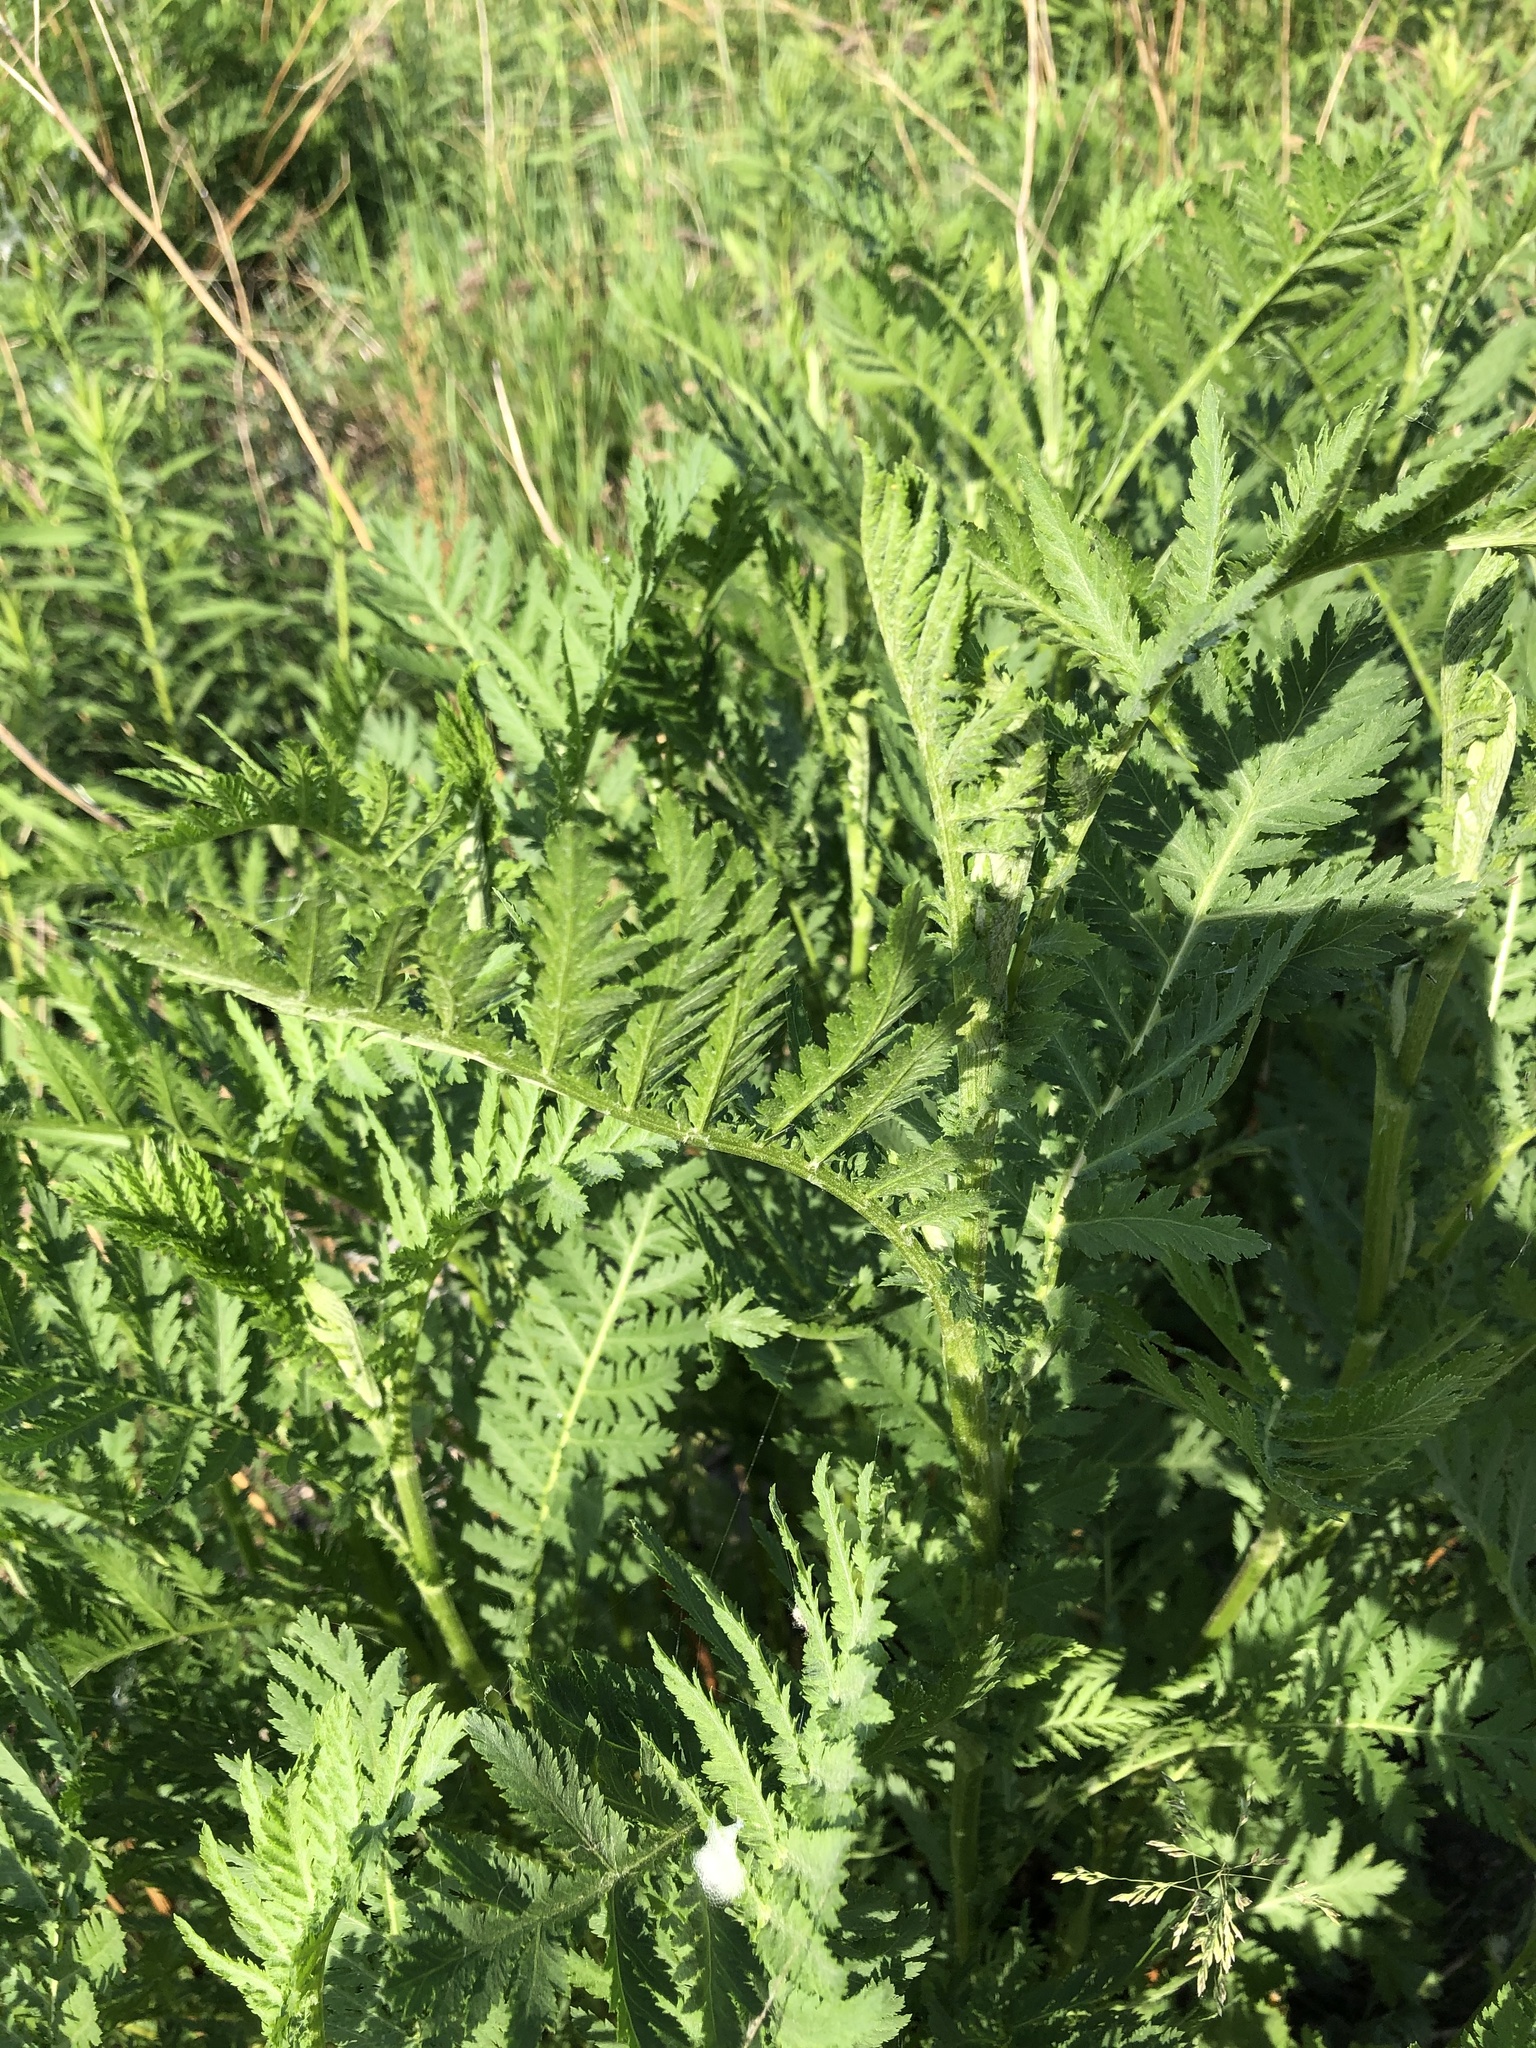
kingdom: Plantae
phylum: Tracheophyta
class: Magnoliopsida
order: Asterales
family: Asteraceae
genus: Tanacetum
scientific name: Tanacetum vulgare
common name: Common tansy
